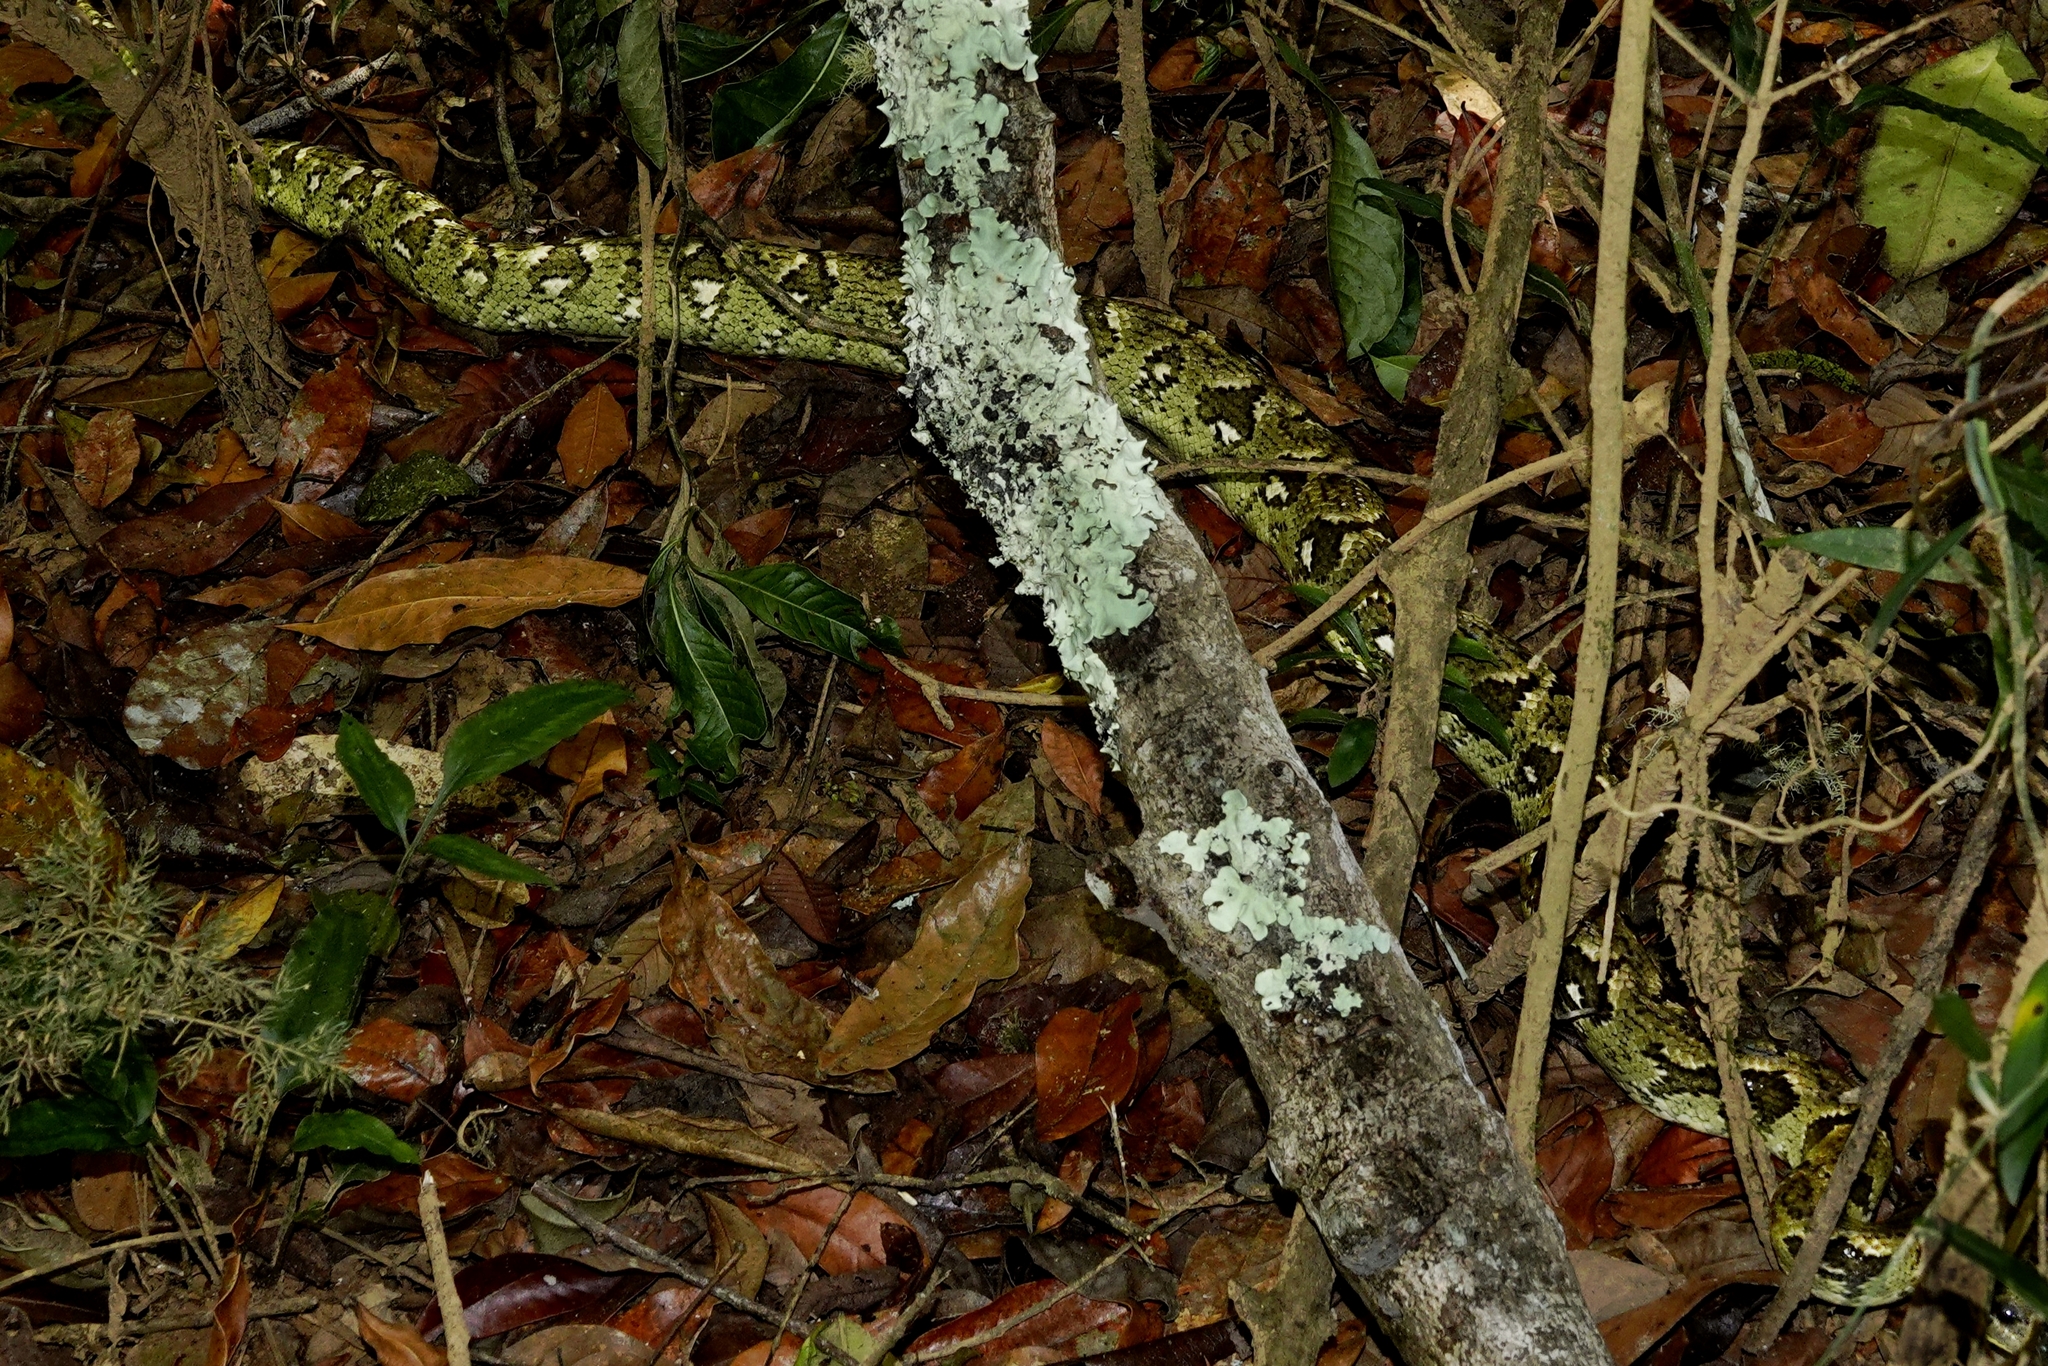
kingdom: Animalia
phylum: Chordata
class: Squamata
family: Boidae
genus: Sanzinia
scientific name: Sanzinia madagascariensis
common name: Madagascar tree boa
